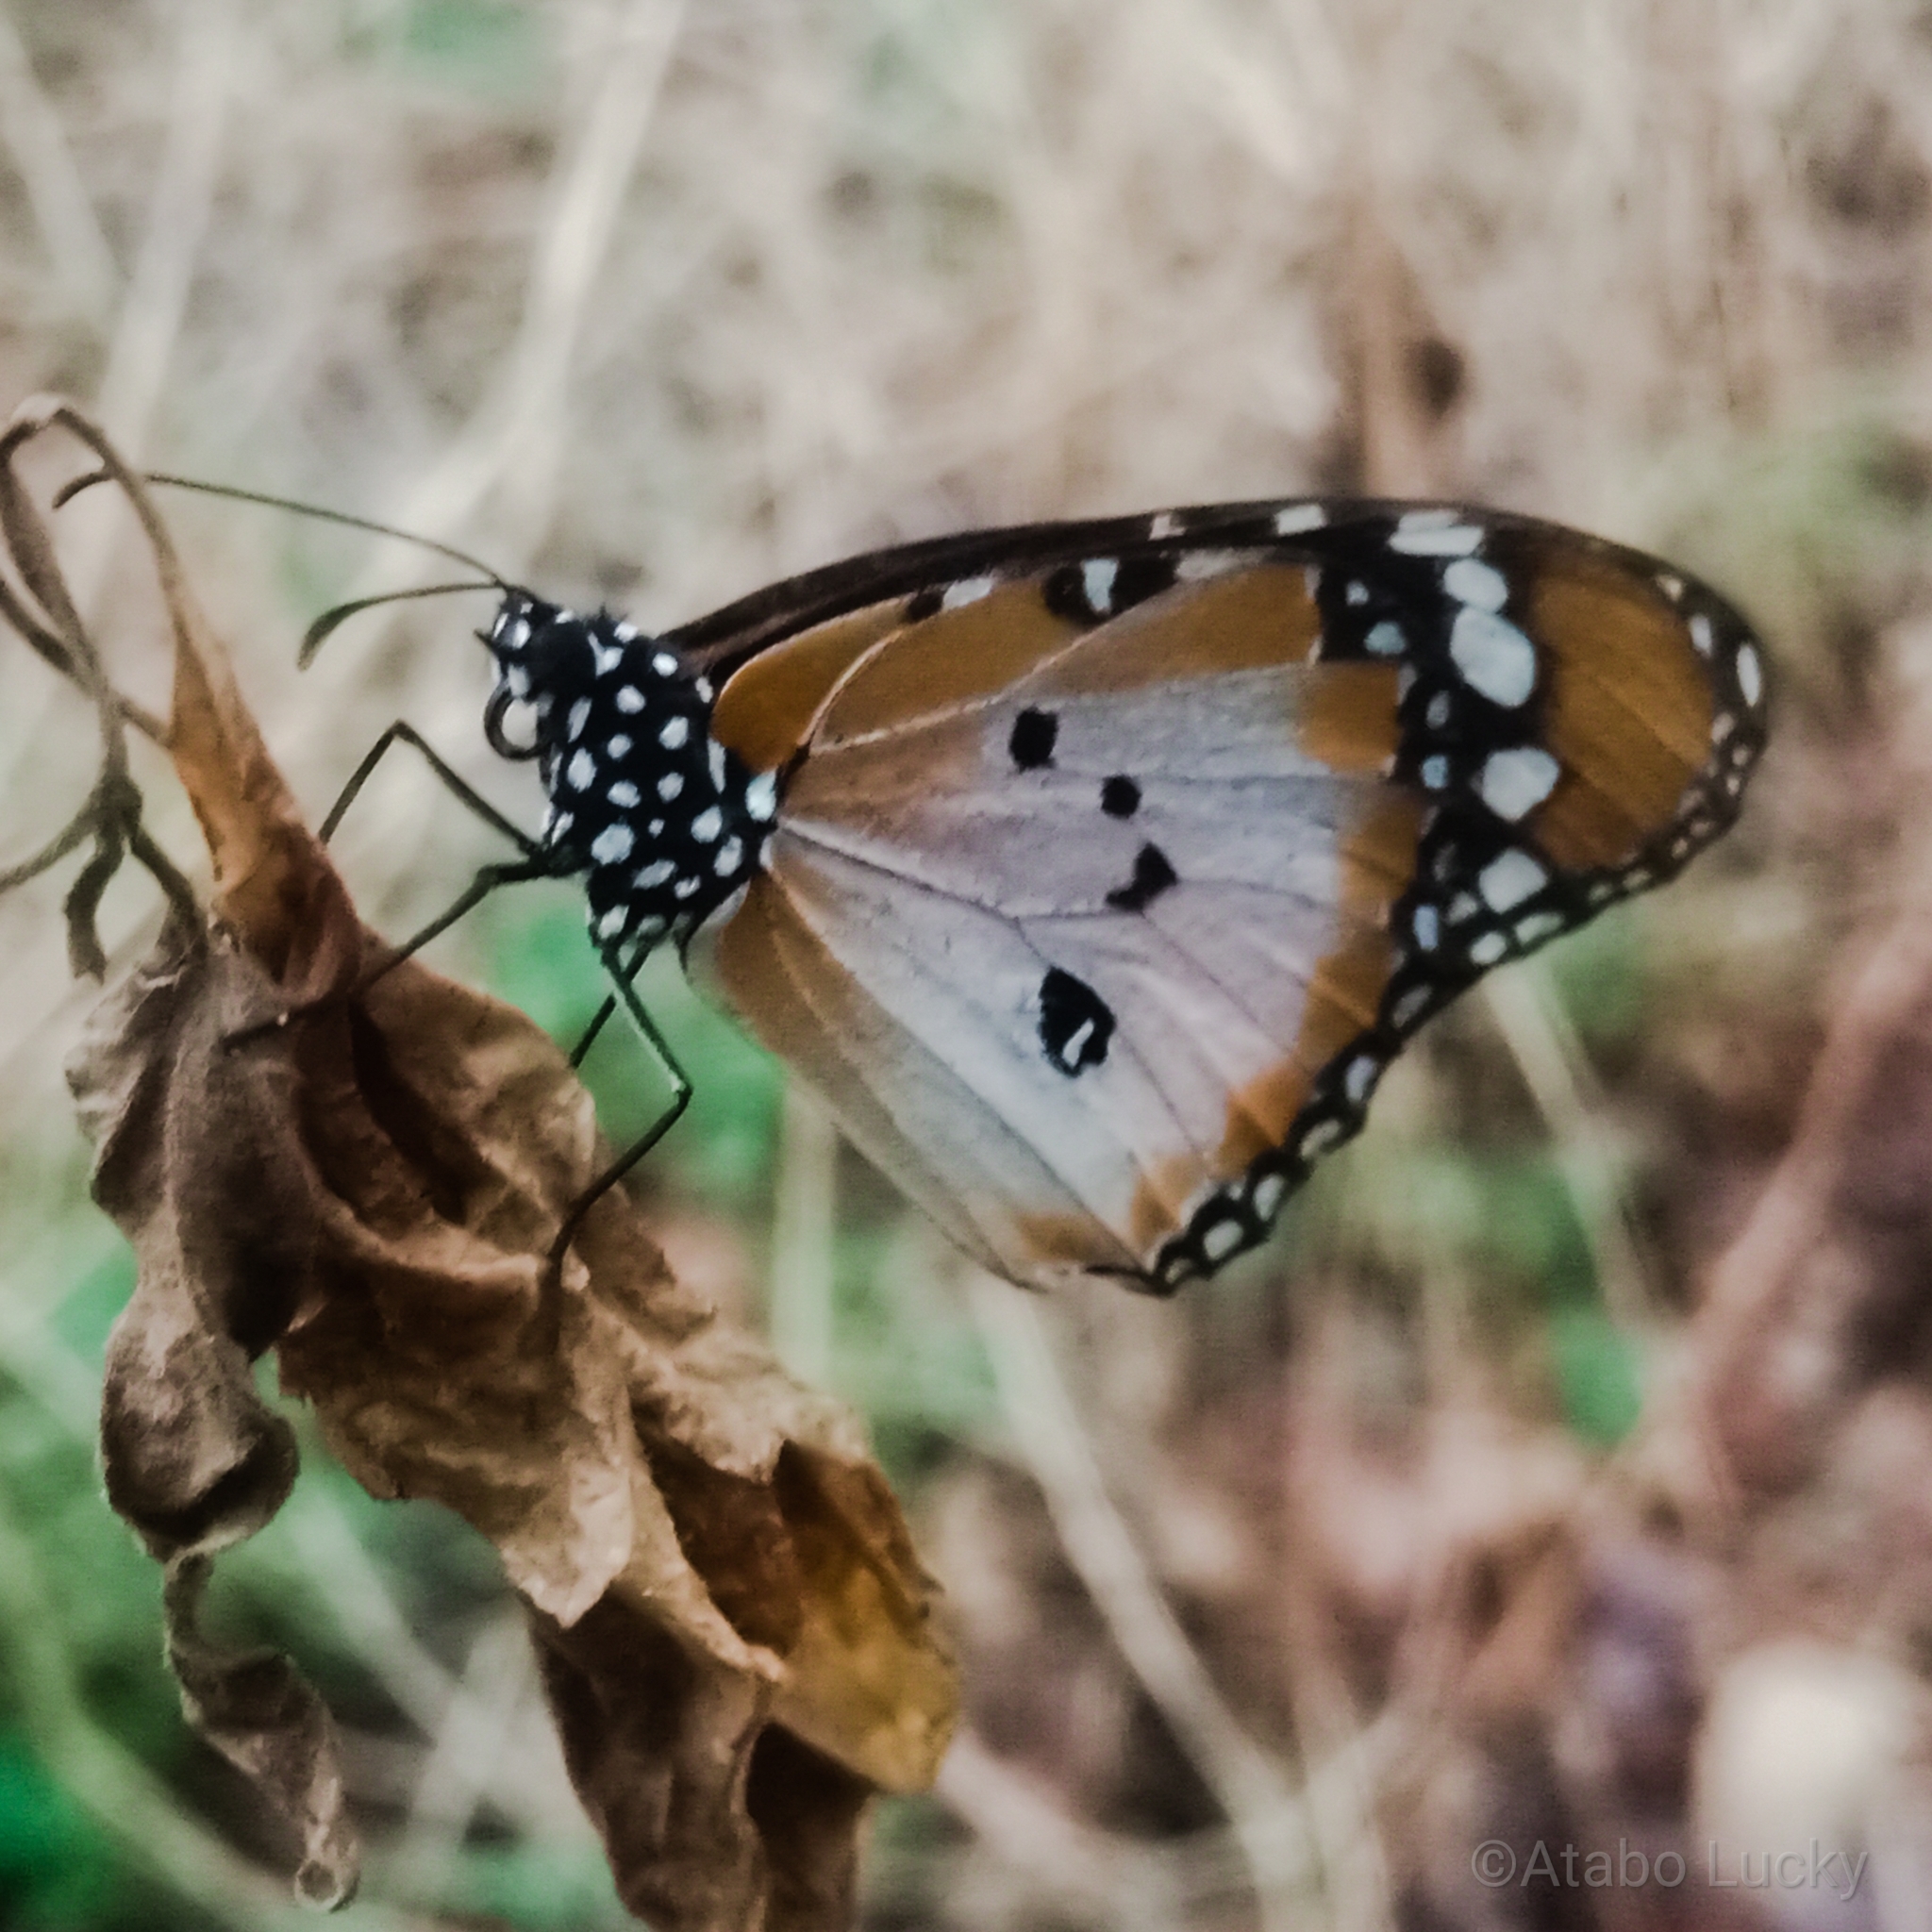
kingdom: Animalia
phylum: Arthropoda
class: Insecta
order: Lepidoptera
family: Nymphalidae
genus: Danaus
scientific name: Danaus chrysippus
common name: Plain tiger
